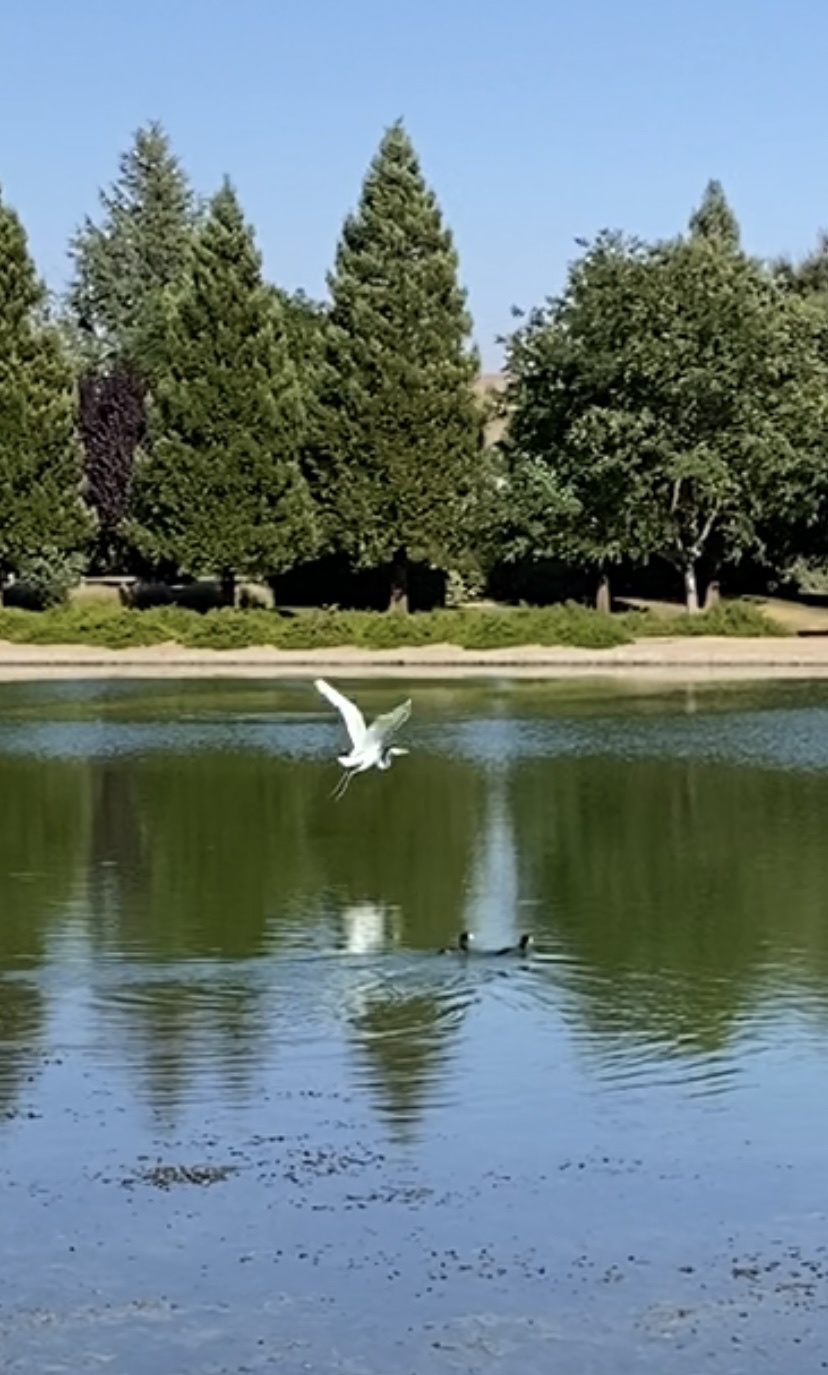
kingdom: Animalia
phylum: Chordata
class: Aves
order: Pelecaniformes
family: Ardeidae
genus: Ardea
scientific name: Ardea alba
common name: Great egret
